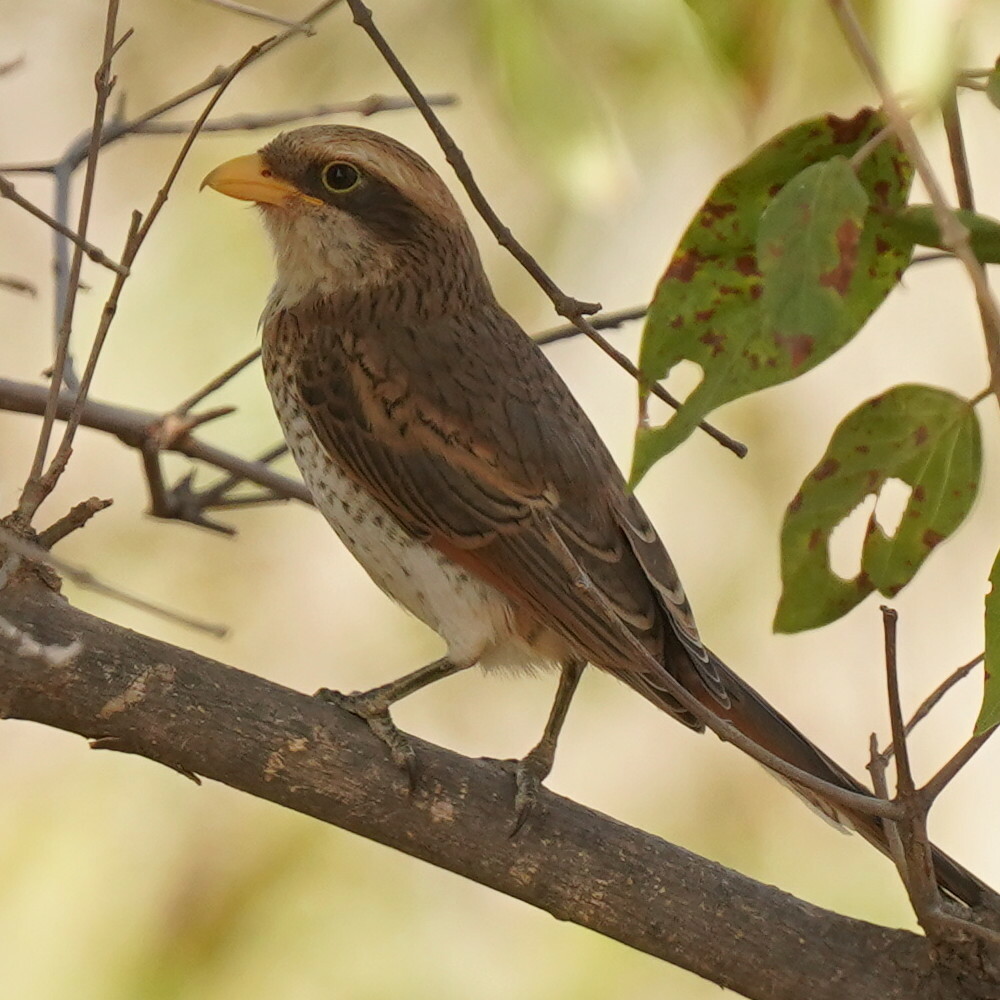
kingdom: Animalia
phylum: Chordata
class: Aves
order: Passeriformes
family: Laniidae
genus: Corvinella
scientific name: Corvinella corvina
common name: Yellow-billed shrike
